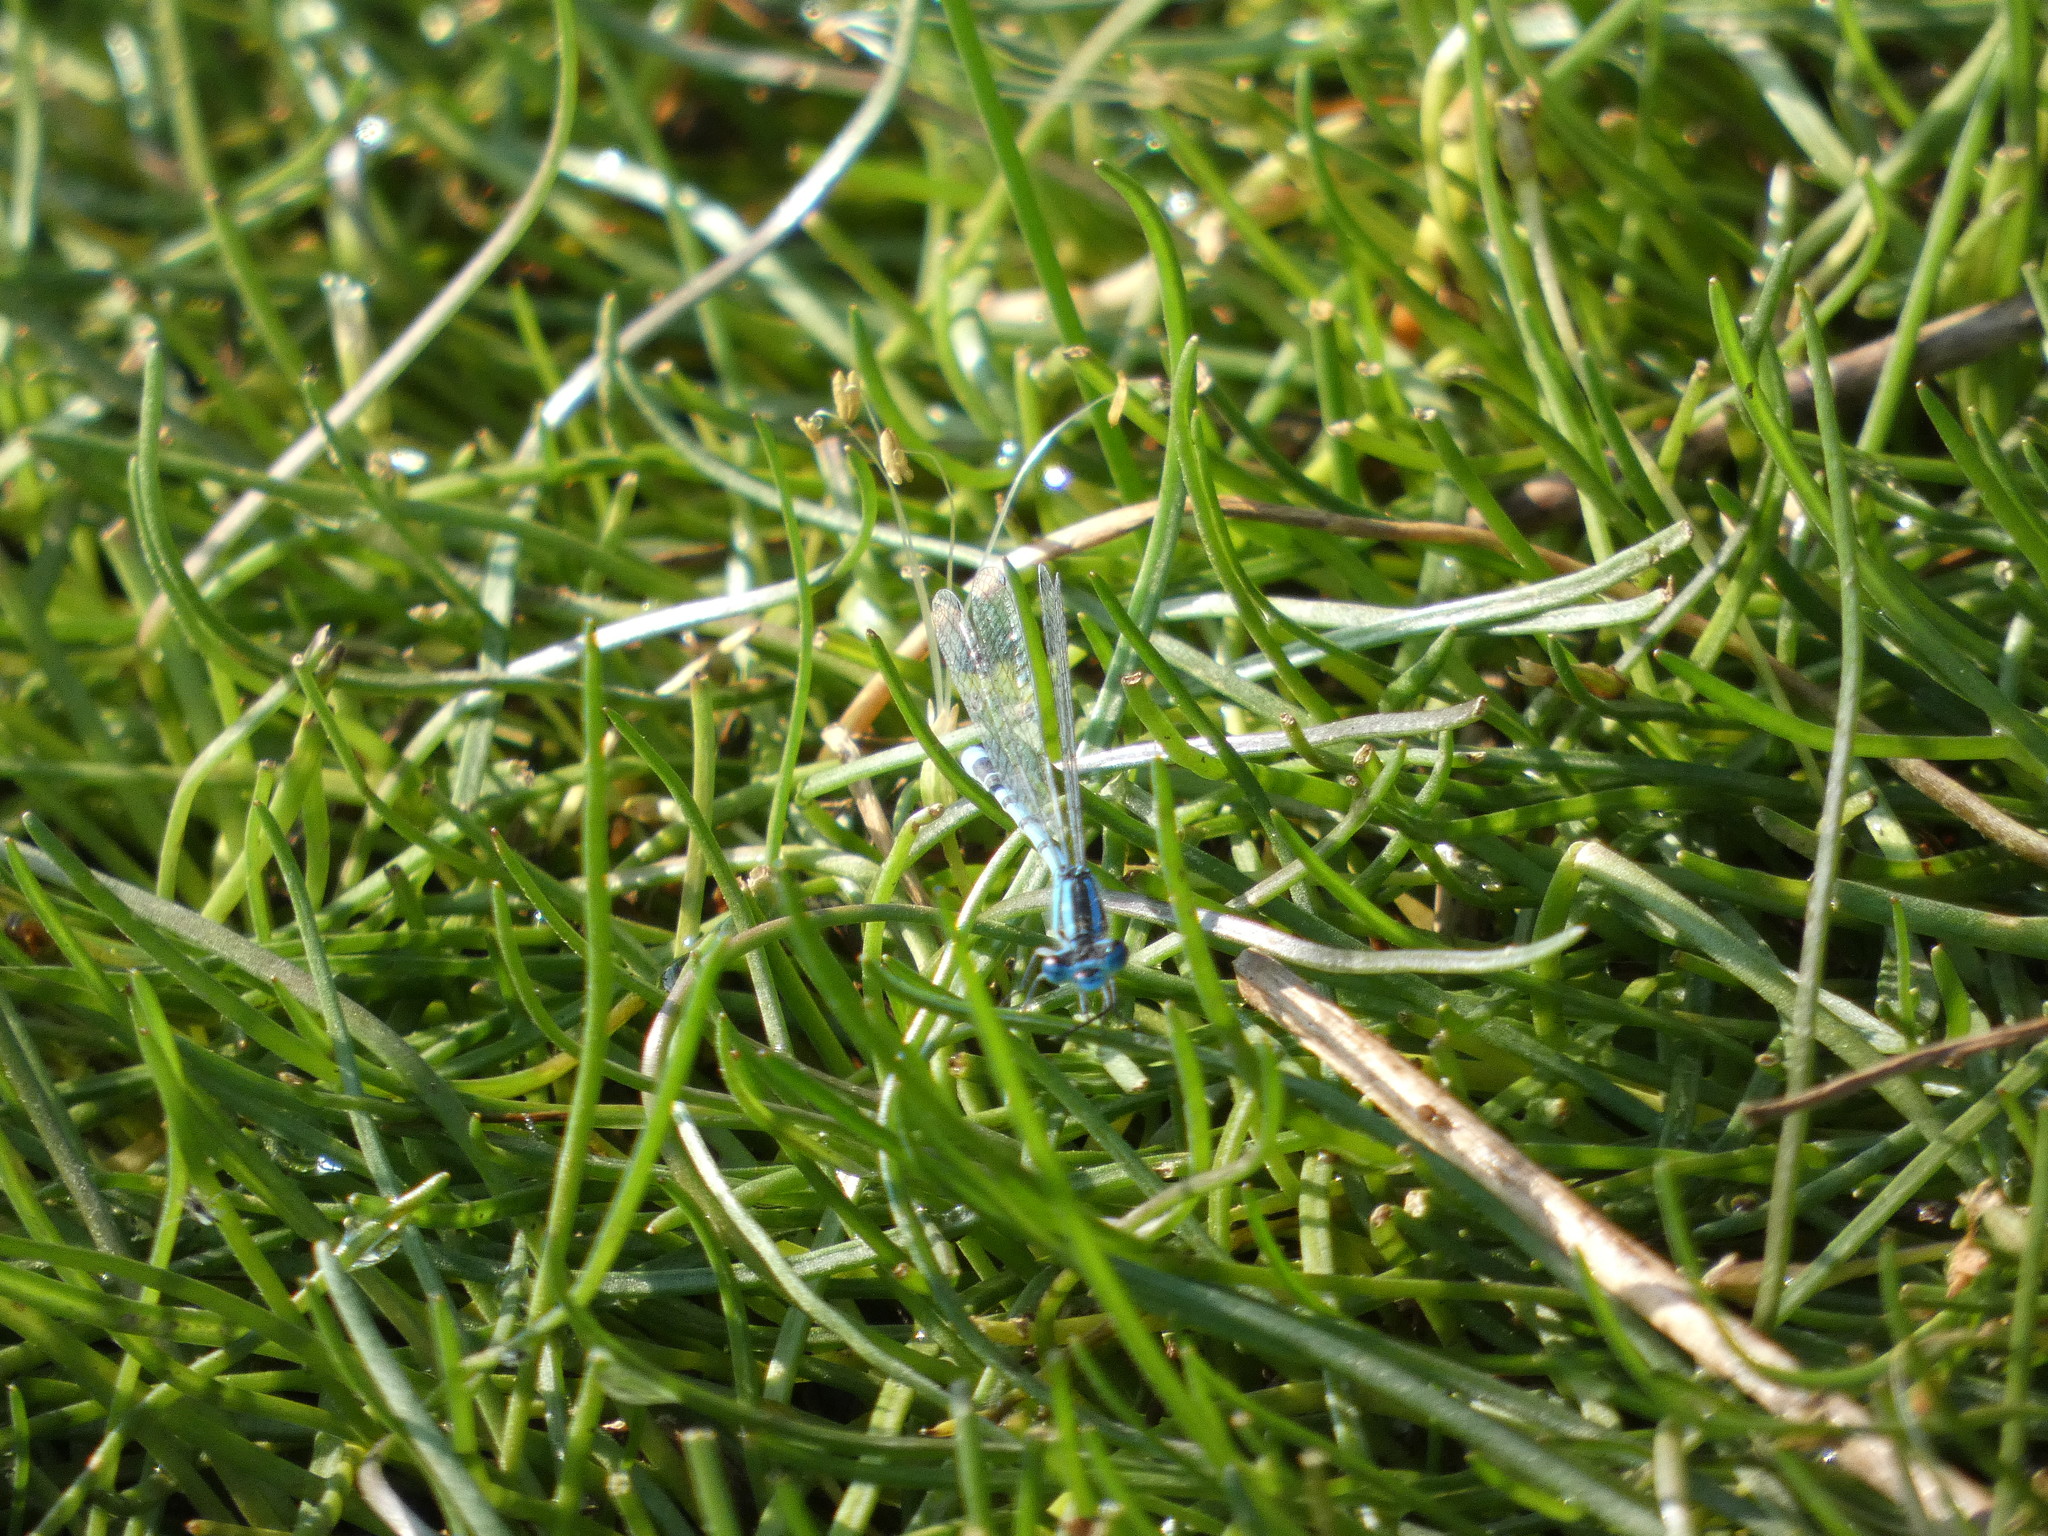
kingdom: Animalia
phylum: Arthropoda
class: Insecta
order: Odonata
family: Coenagrionidae
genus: Enallagma
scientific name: Enallagma cyathigerum
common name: Common blue damselfly
